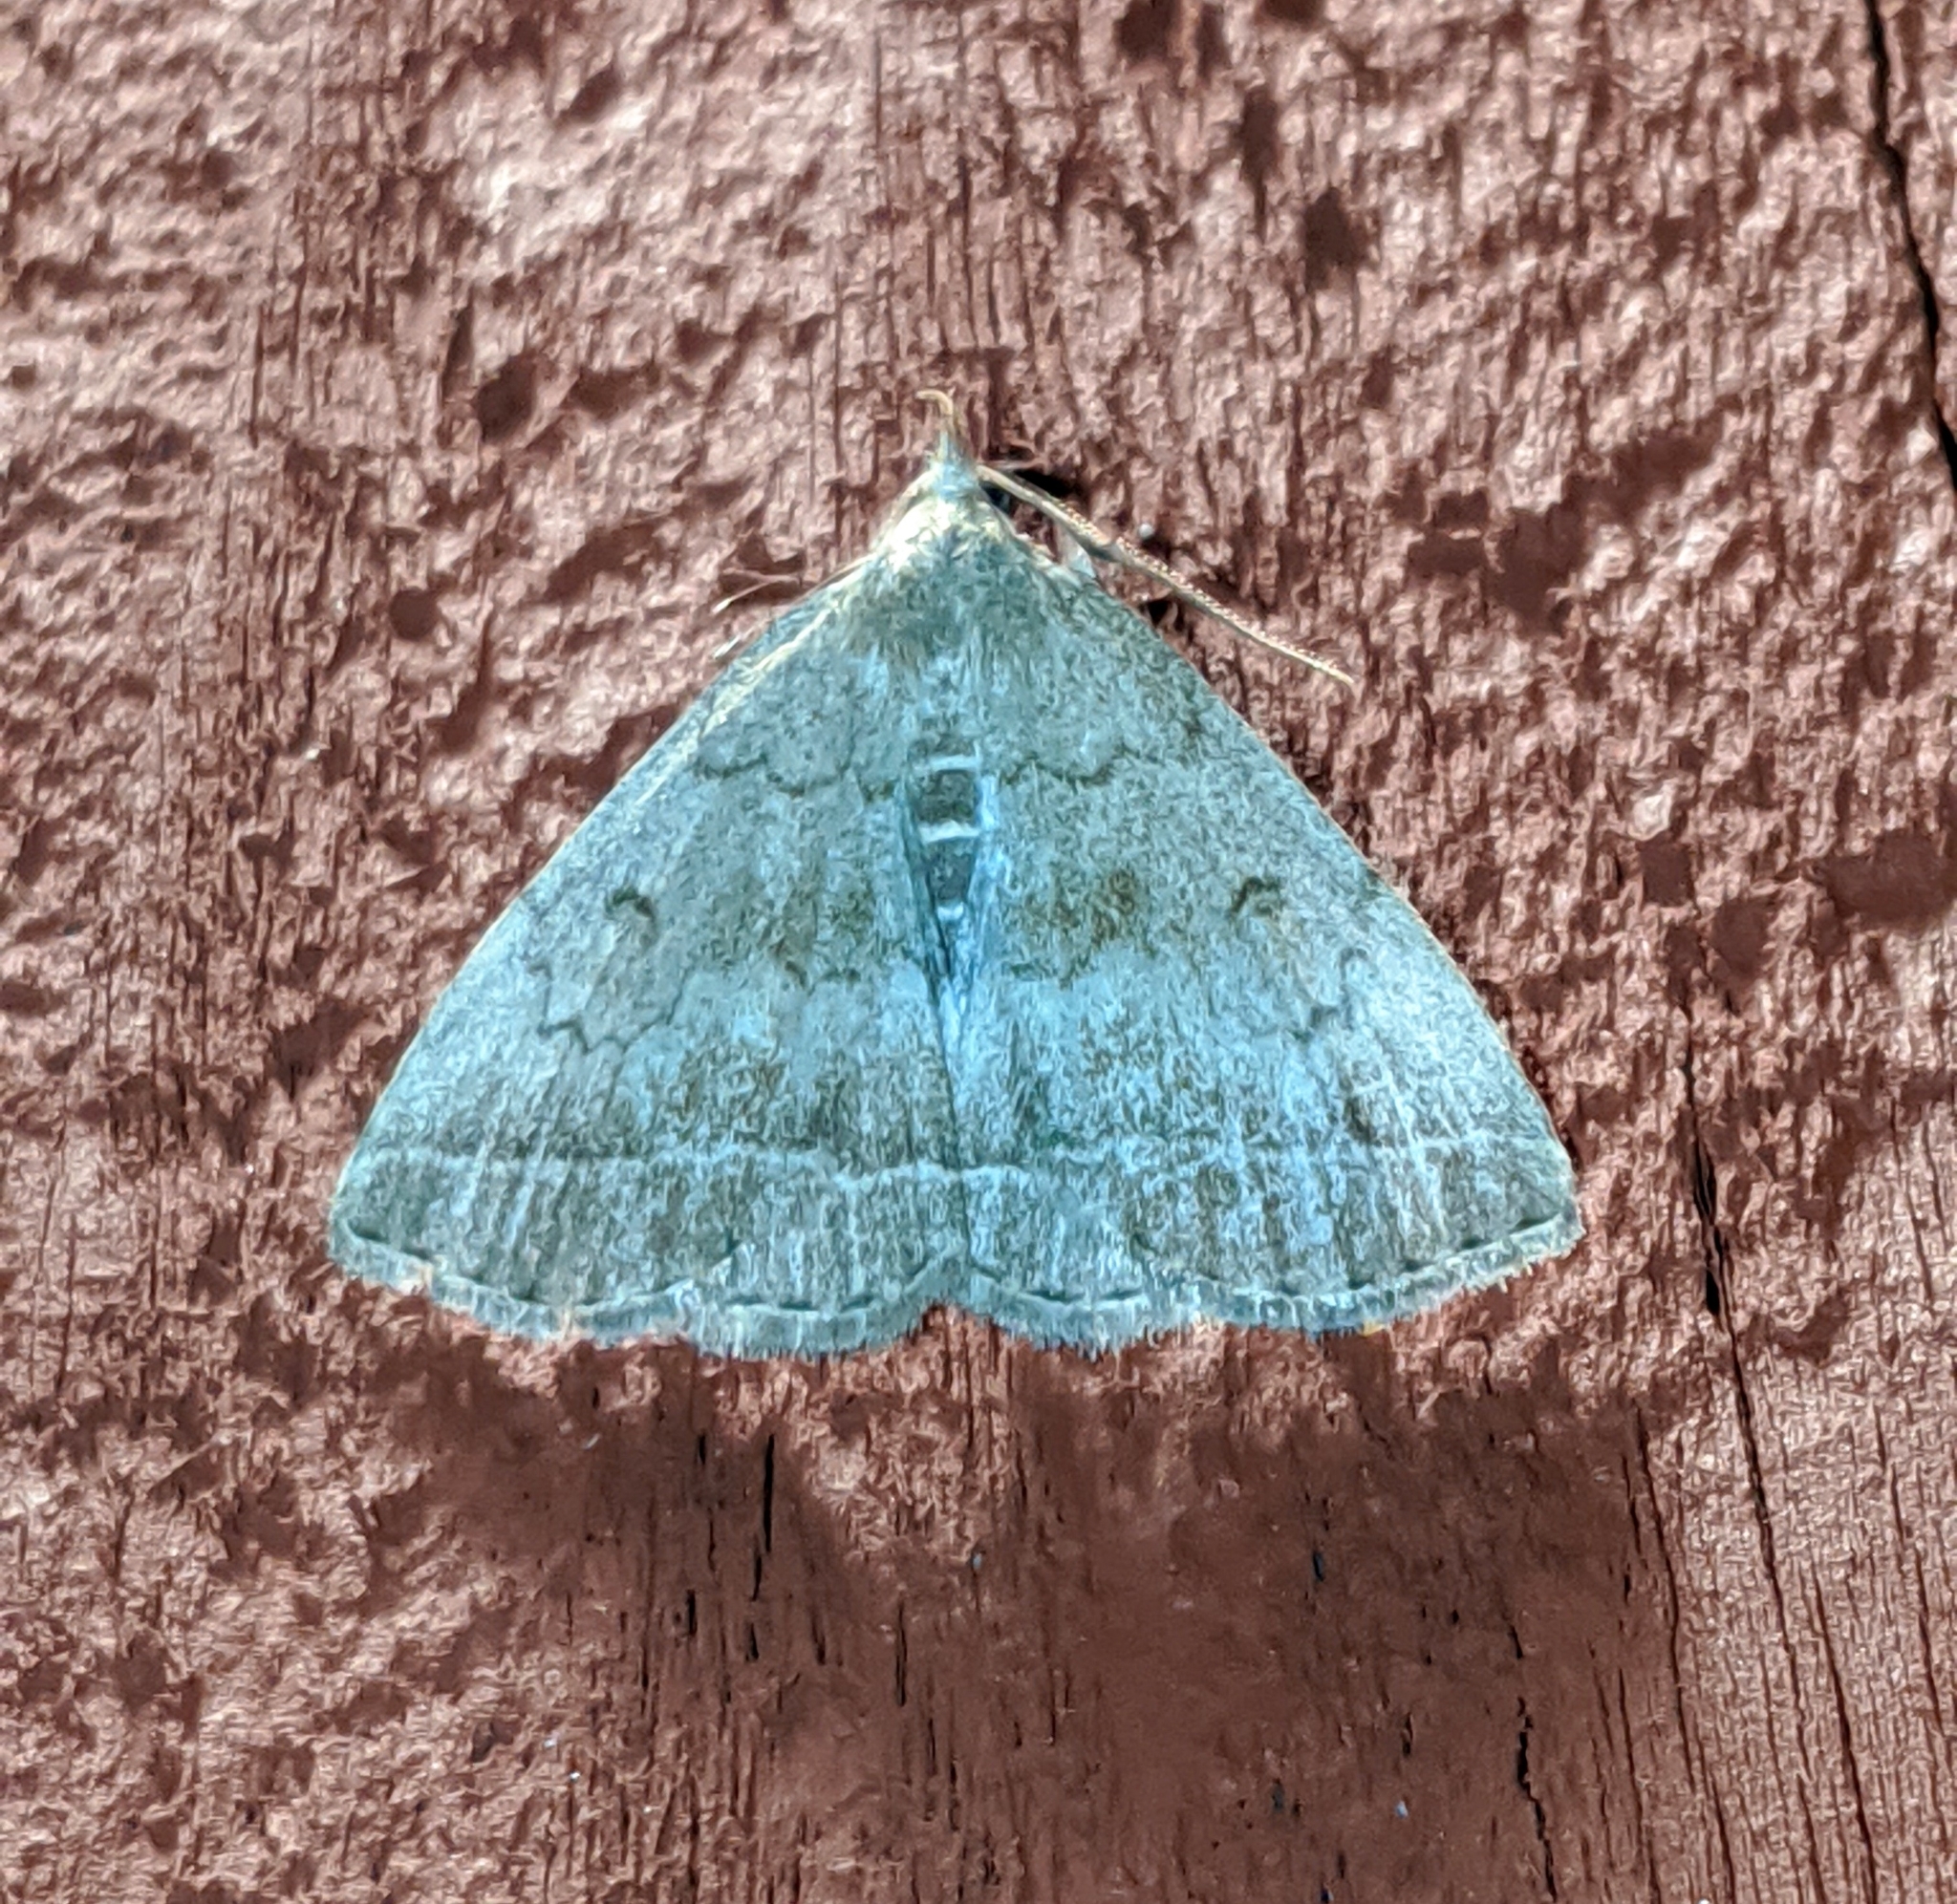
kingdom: Animalia
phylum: Arthropoda
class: Insecta
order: Lepidoptera
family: Erebidae
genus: Zanclognatha
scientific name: Zanclognatha jacchusalis
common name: Yellowish zanclognatha
